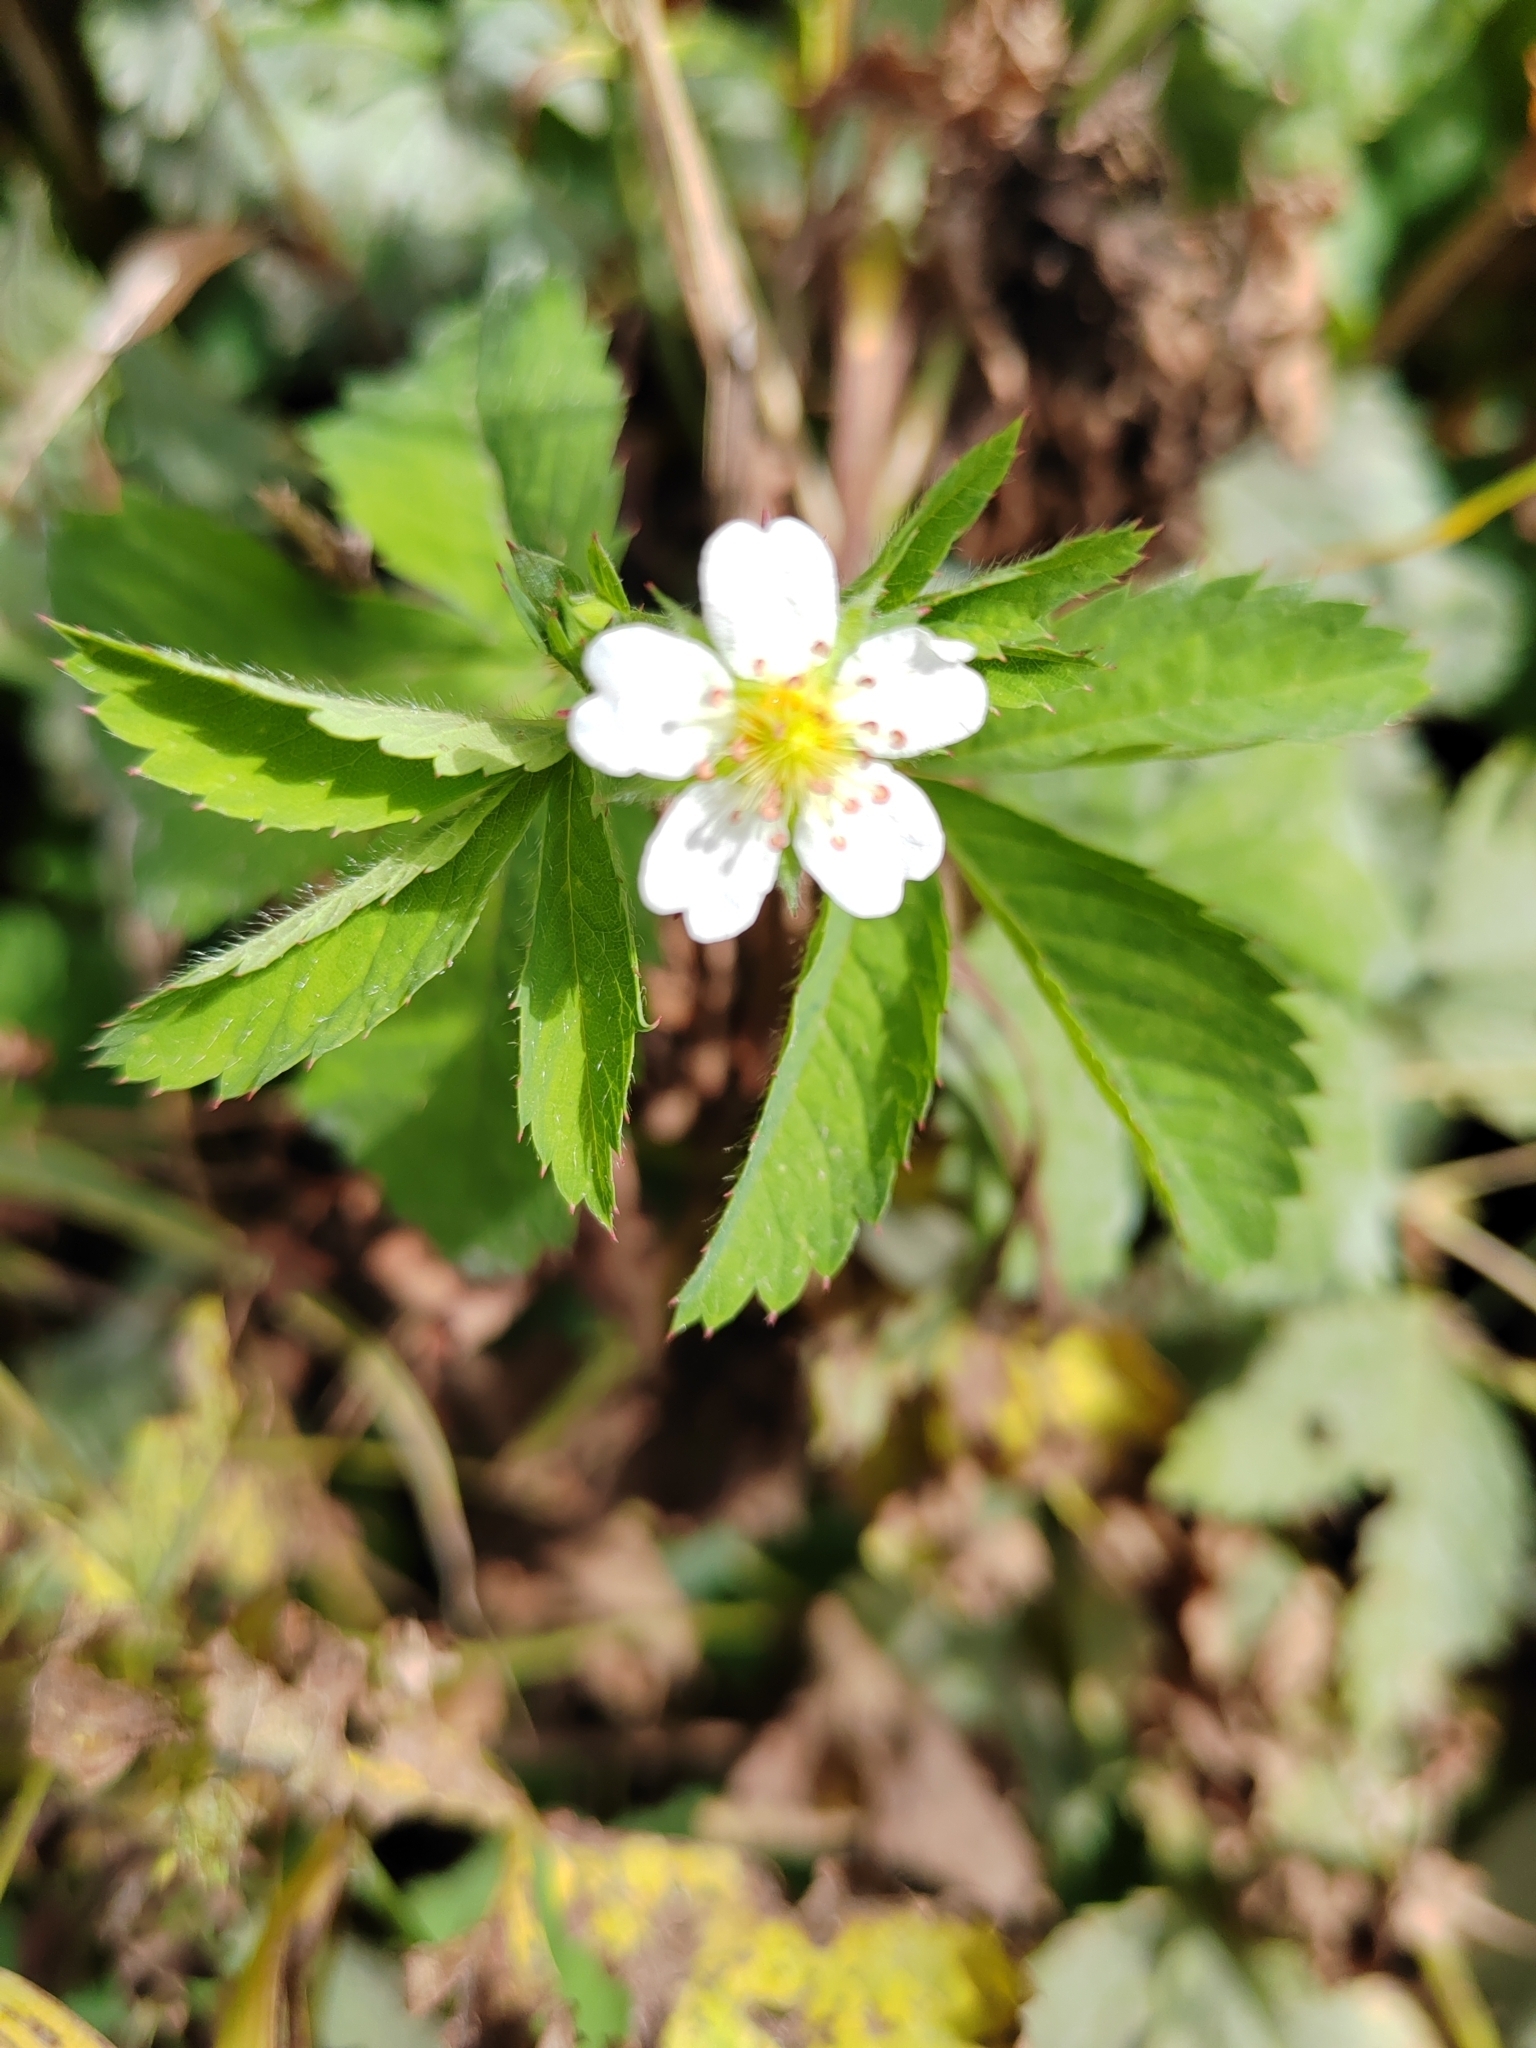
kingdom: Plantae
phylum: Tracheophyta
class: Magnoliopsida
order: Rosales
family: Rosaceae
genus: Potentilla
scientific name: Potentilla elatior
